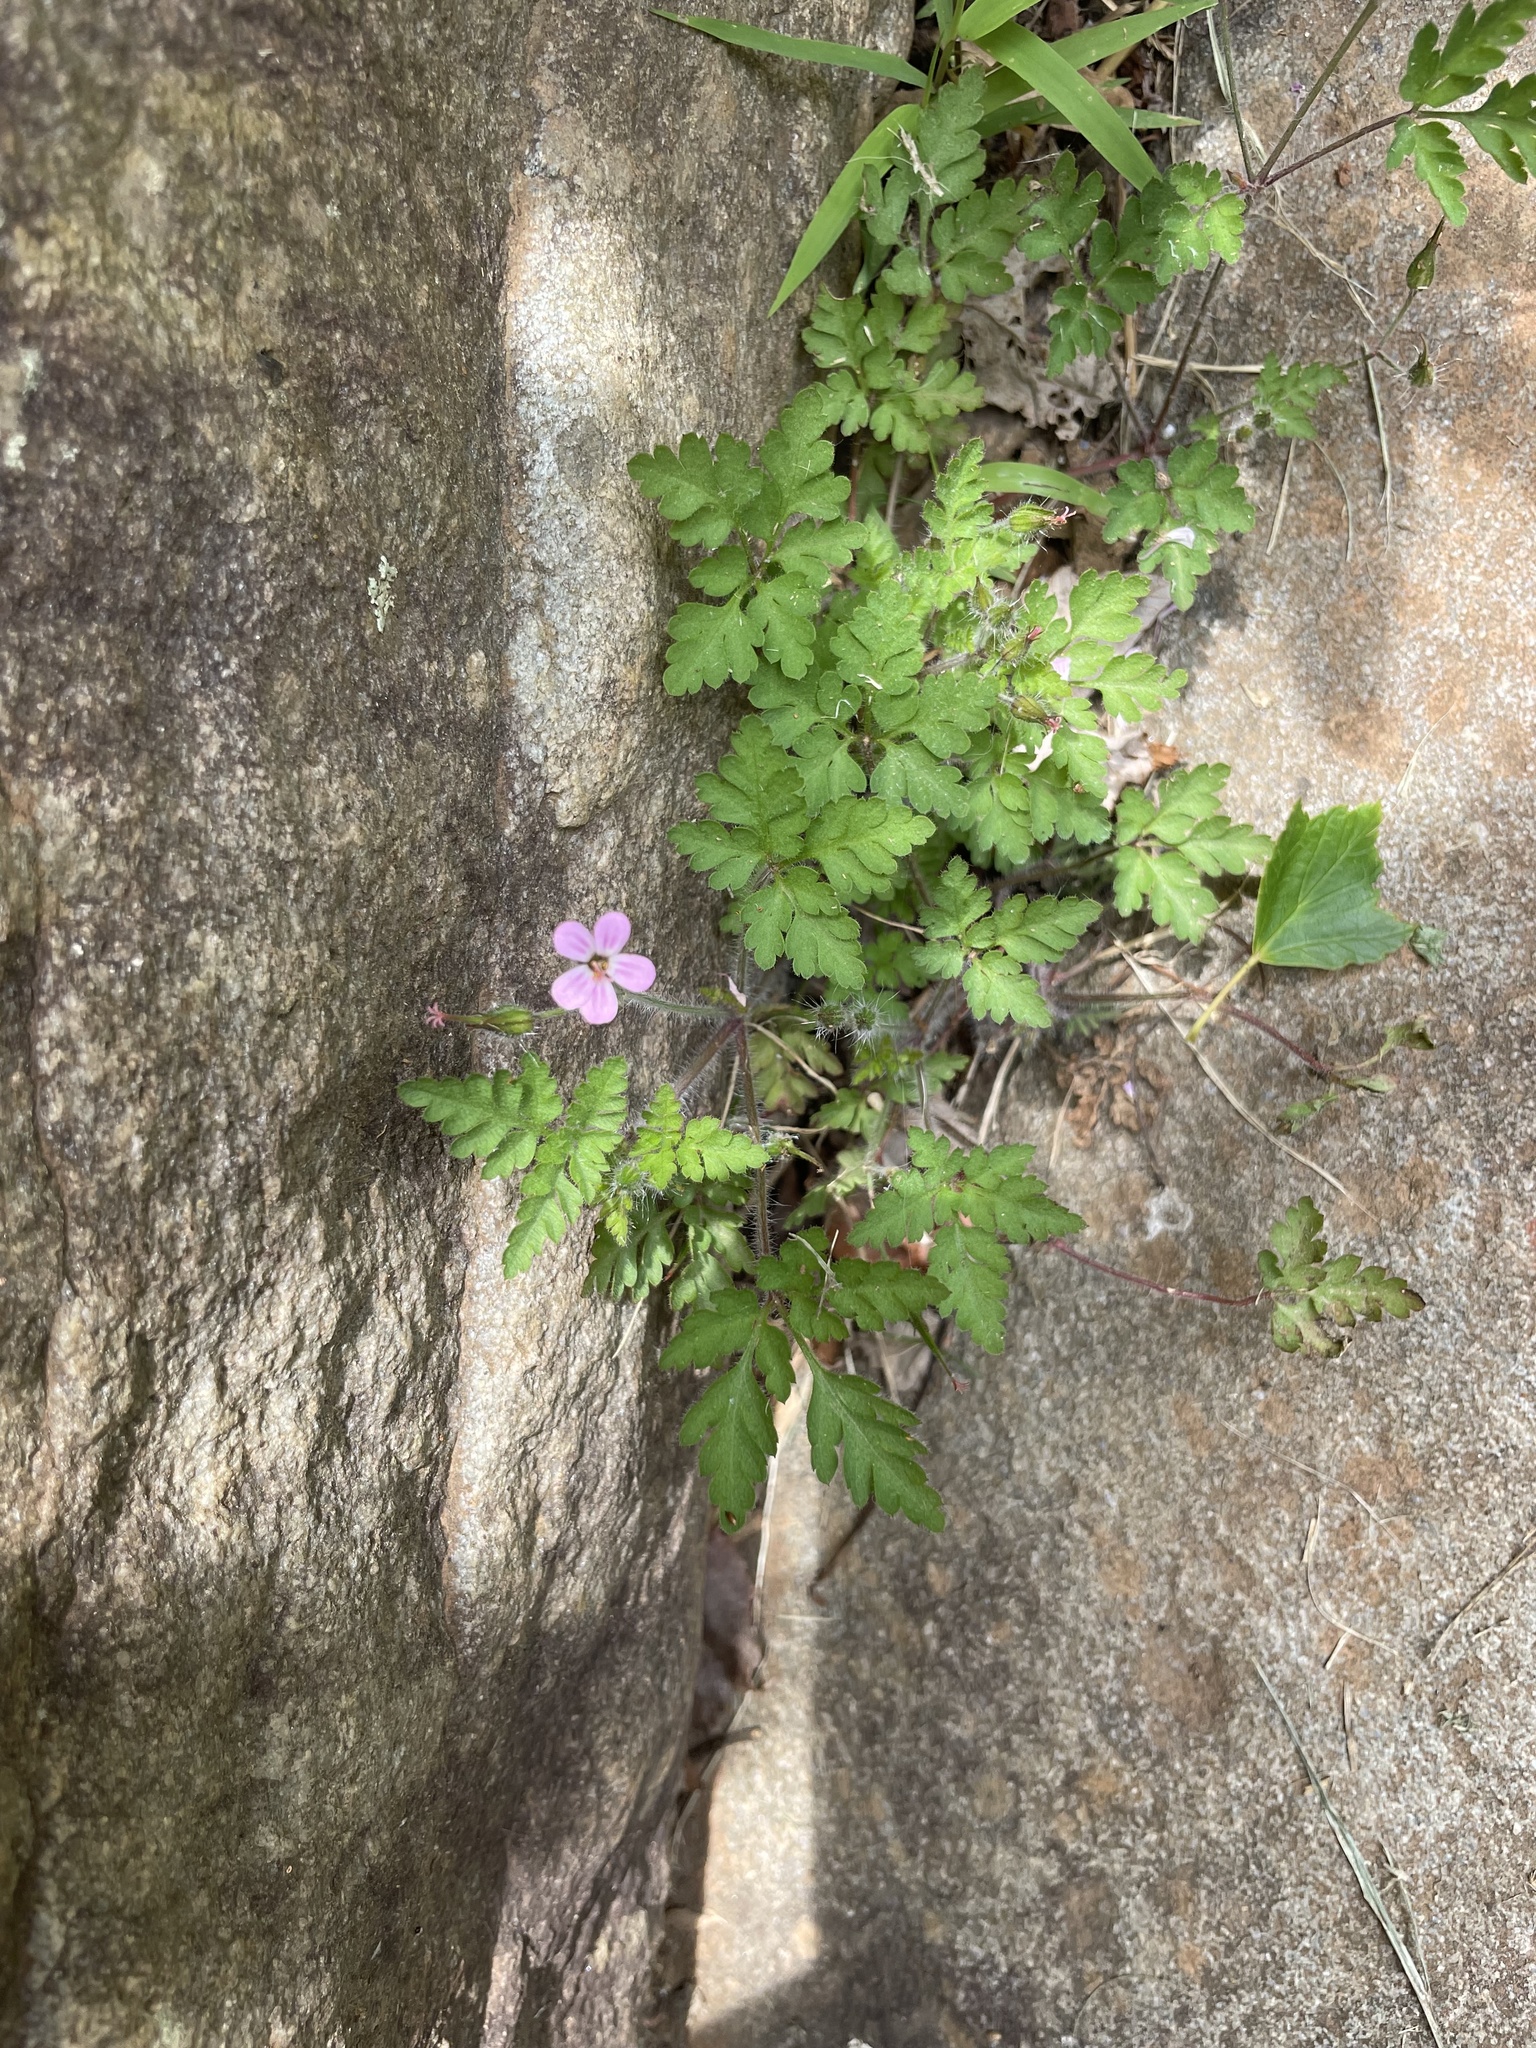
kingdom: Plantae
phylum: Tracheophyta
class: Magnoliopsida
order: Geraniales
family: Geraniaceae
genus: Geranium
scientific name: Geranium robertianum
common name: Herb-robert
